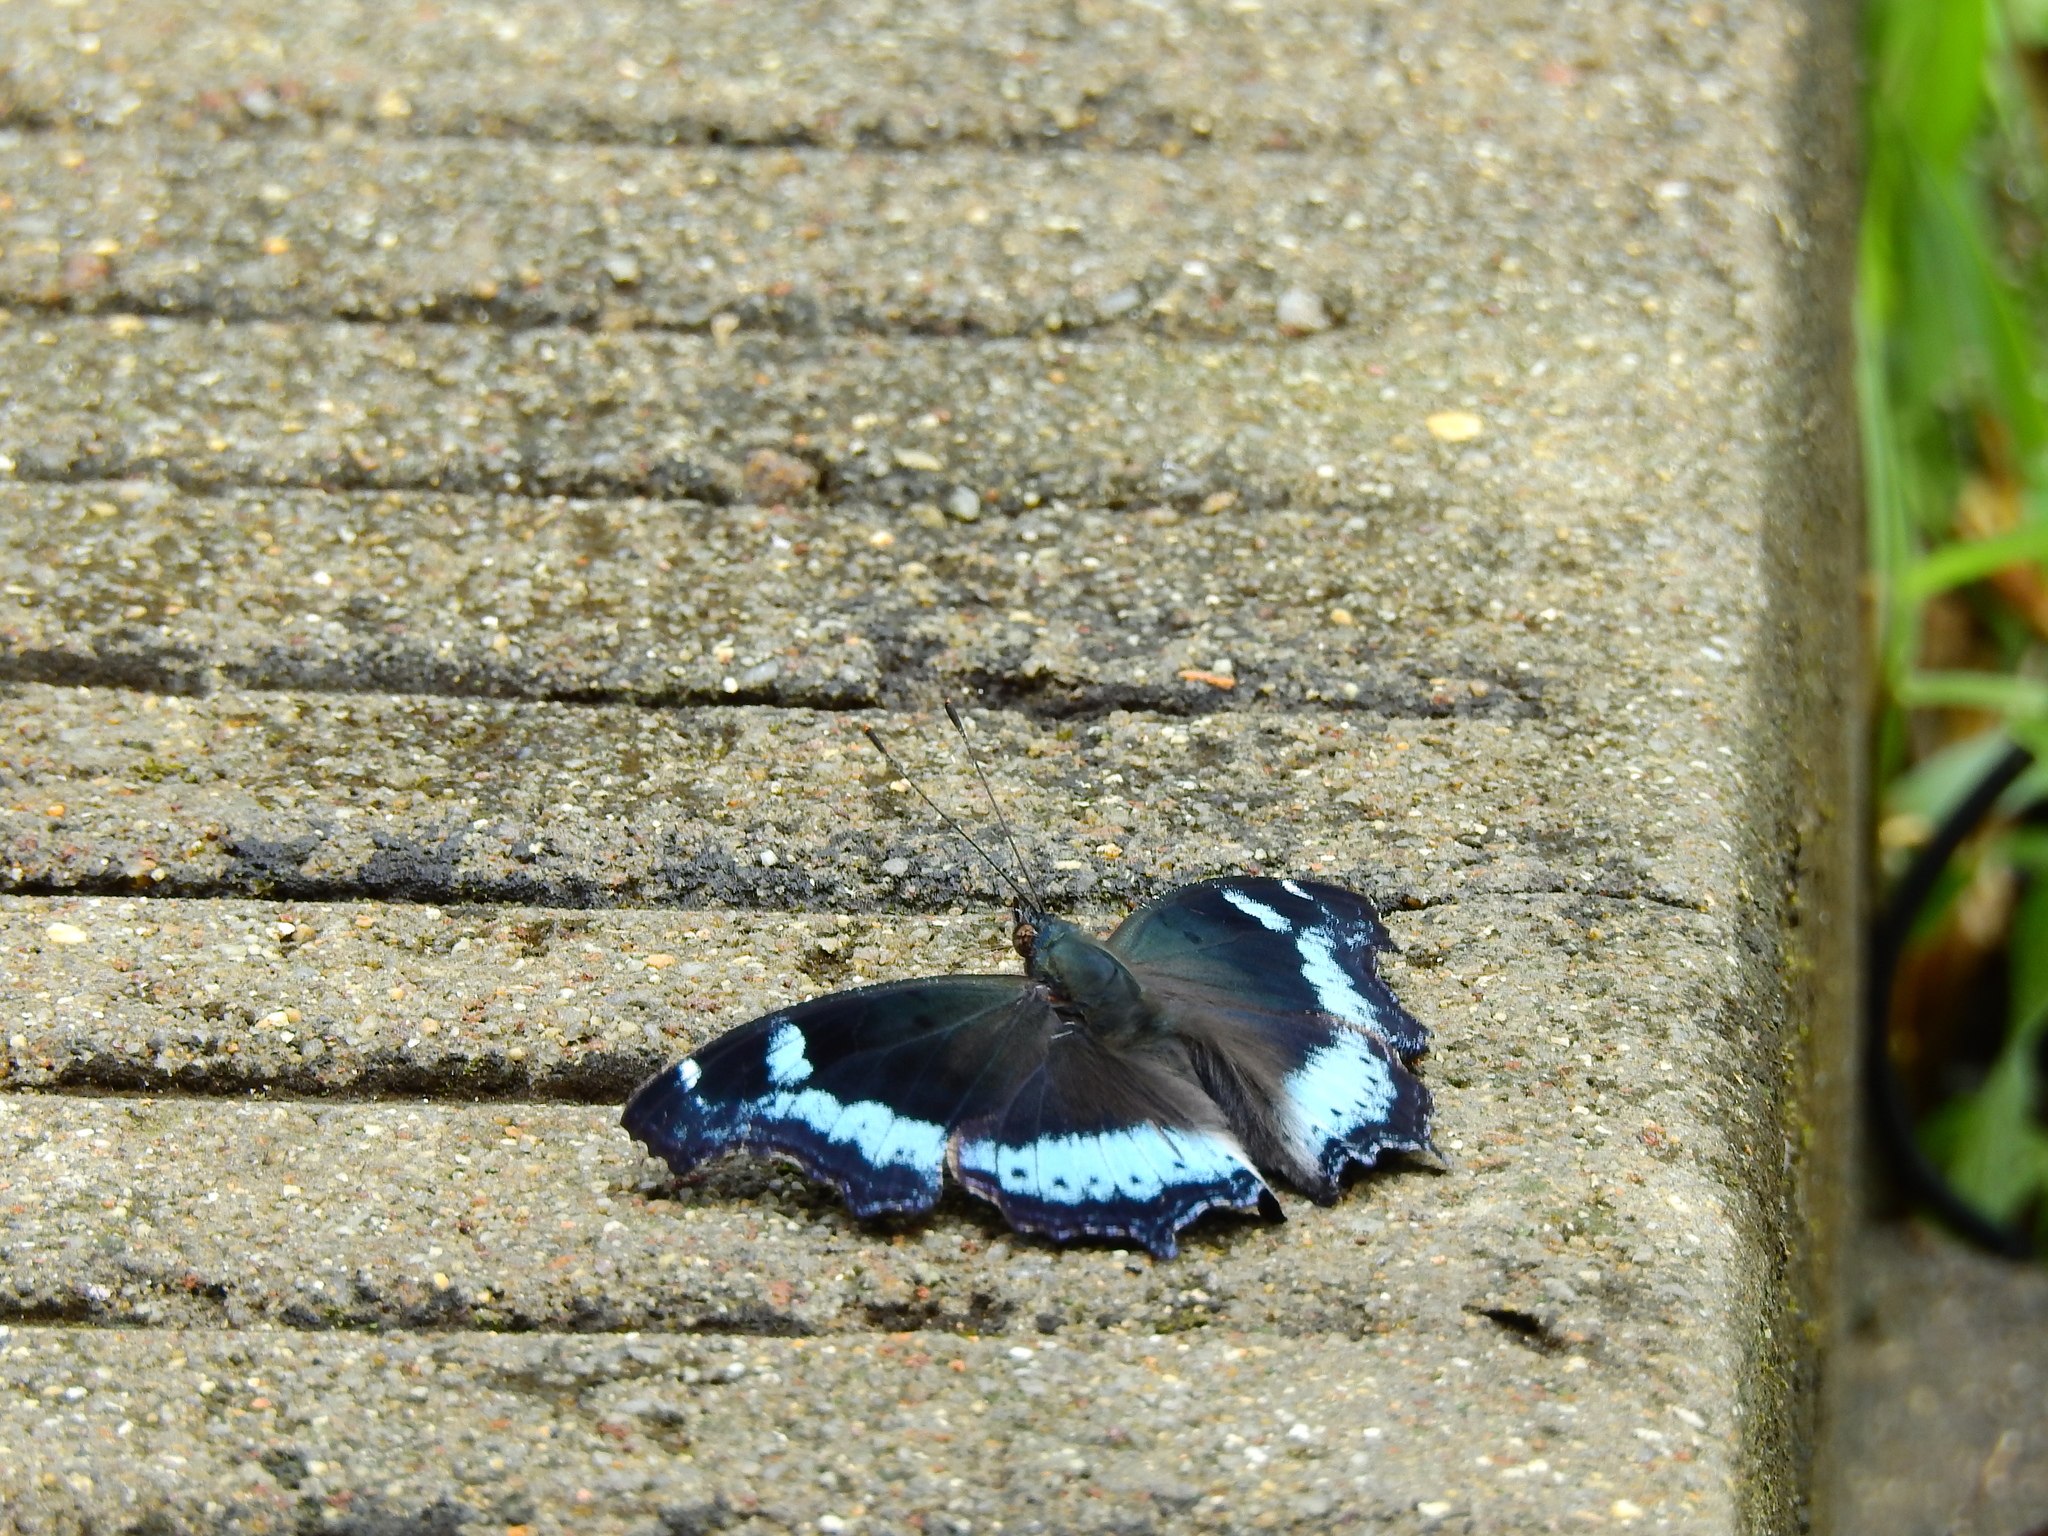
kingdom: Animalia
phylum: Arthropoda
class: Insecta
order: Lepidoptera
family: Nymphalidae
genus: Vanessa
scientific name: Vanessa Kaniska canace
